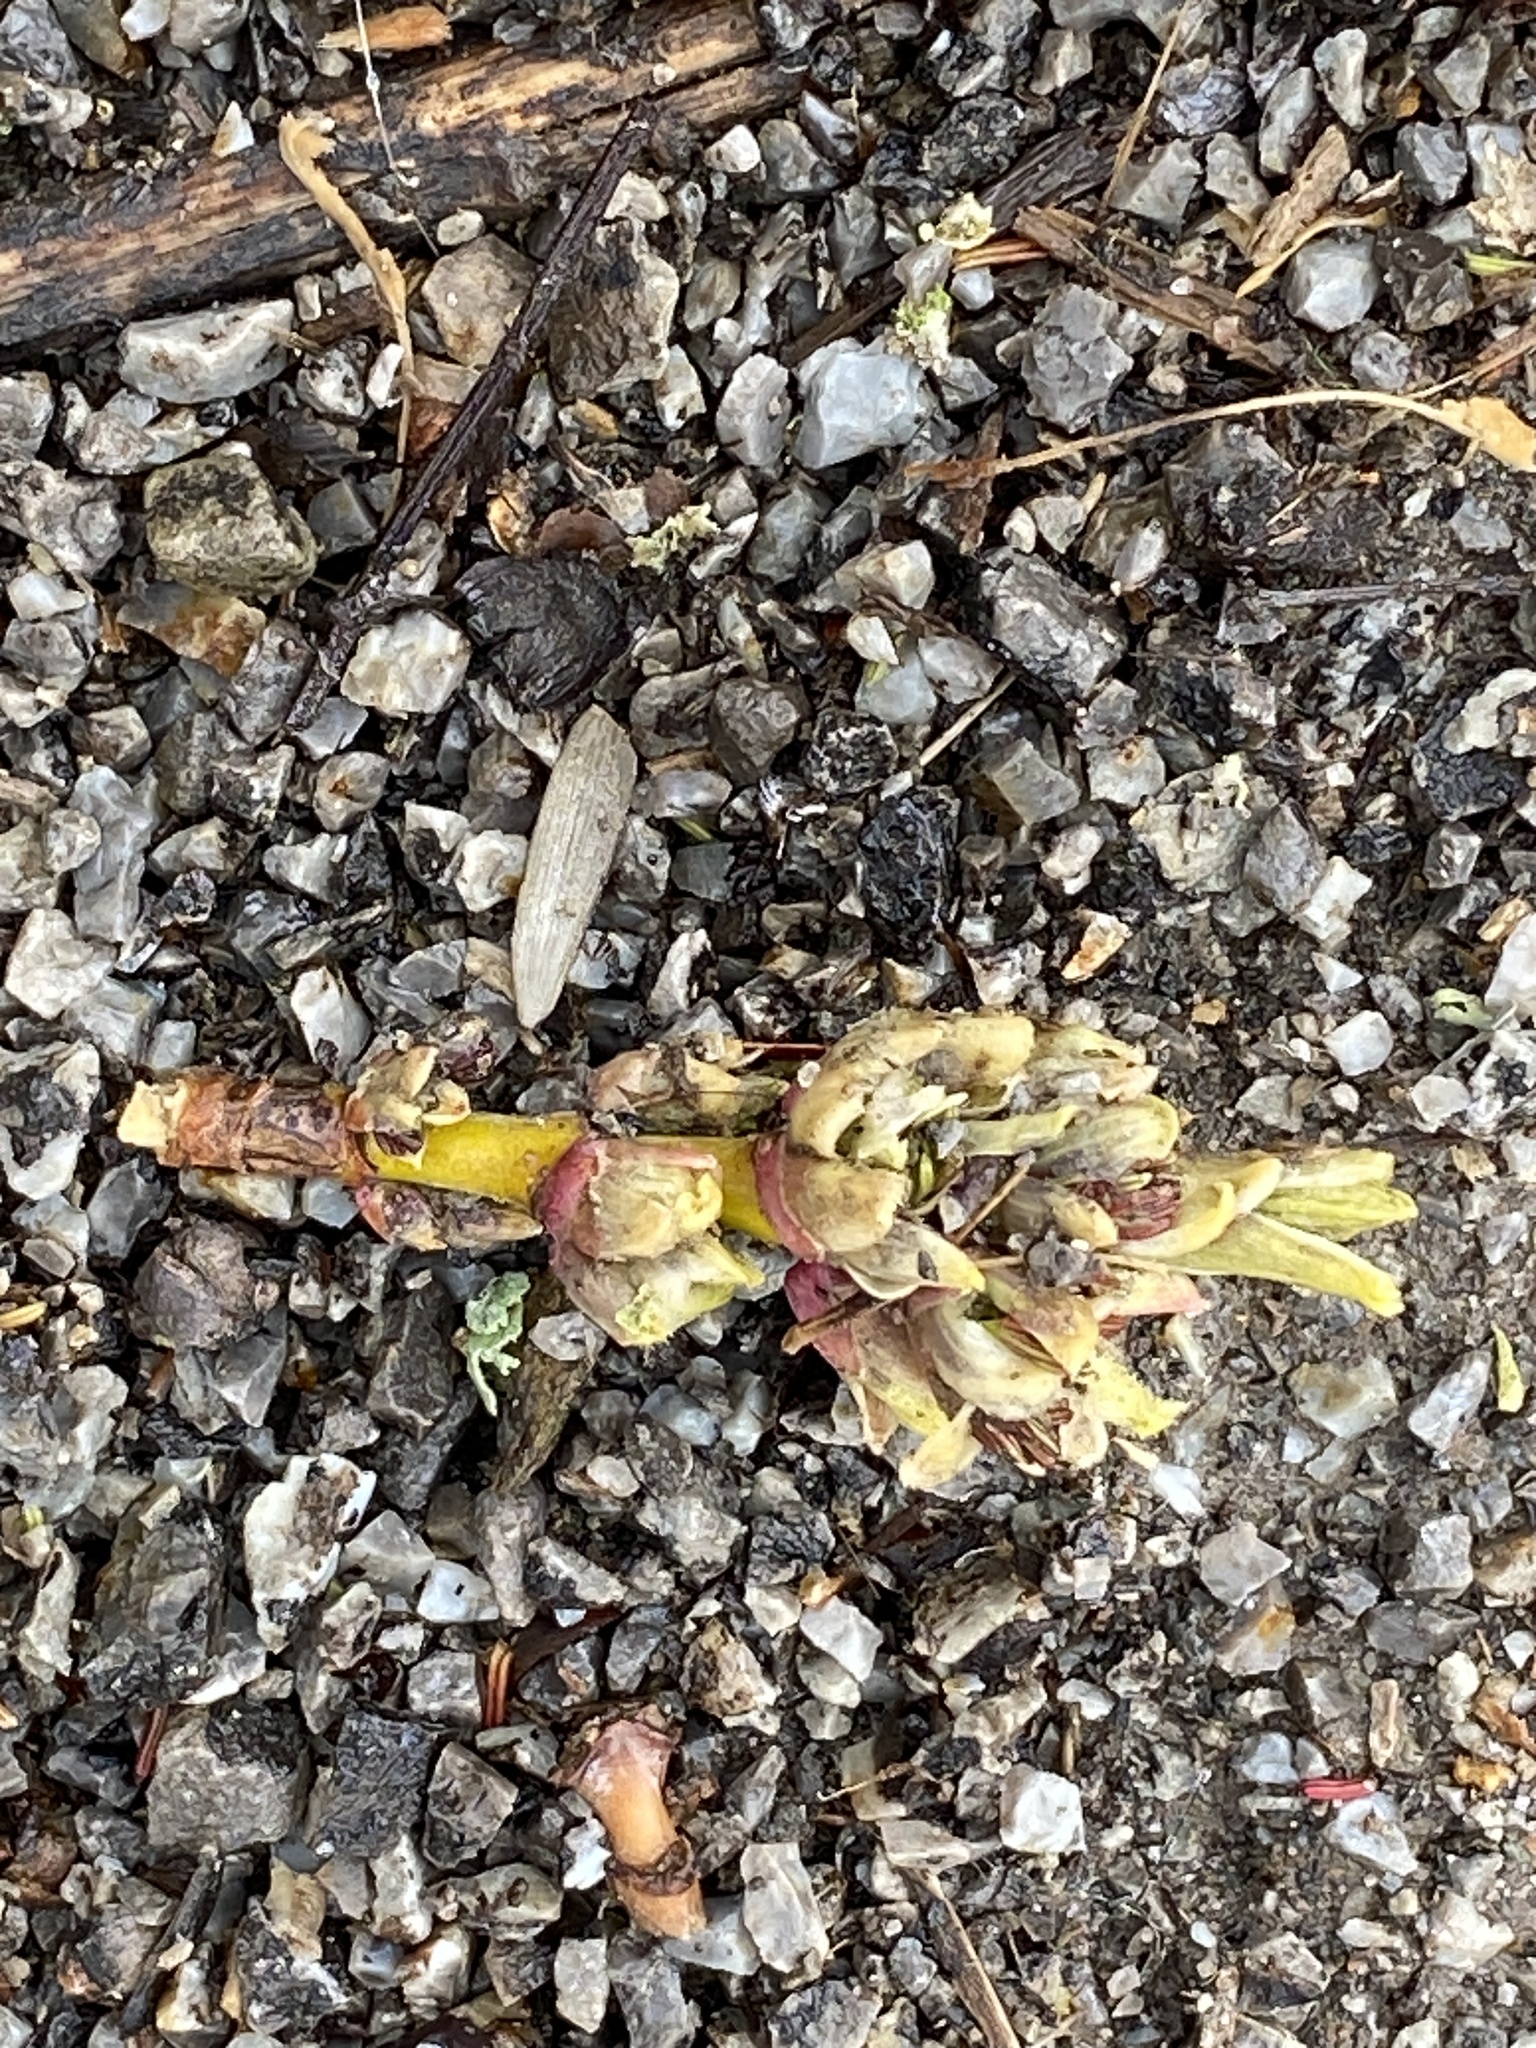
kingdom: Plantae
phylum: Tracheophyta
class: Magnoliopsida
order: Sapindales
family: Sapindaceae
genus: Acer
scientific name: Acer negundo
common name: Ashleaf maple
